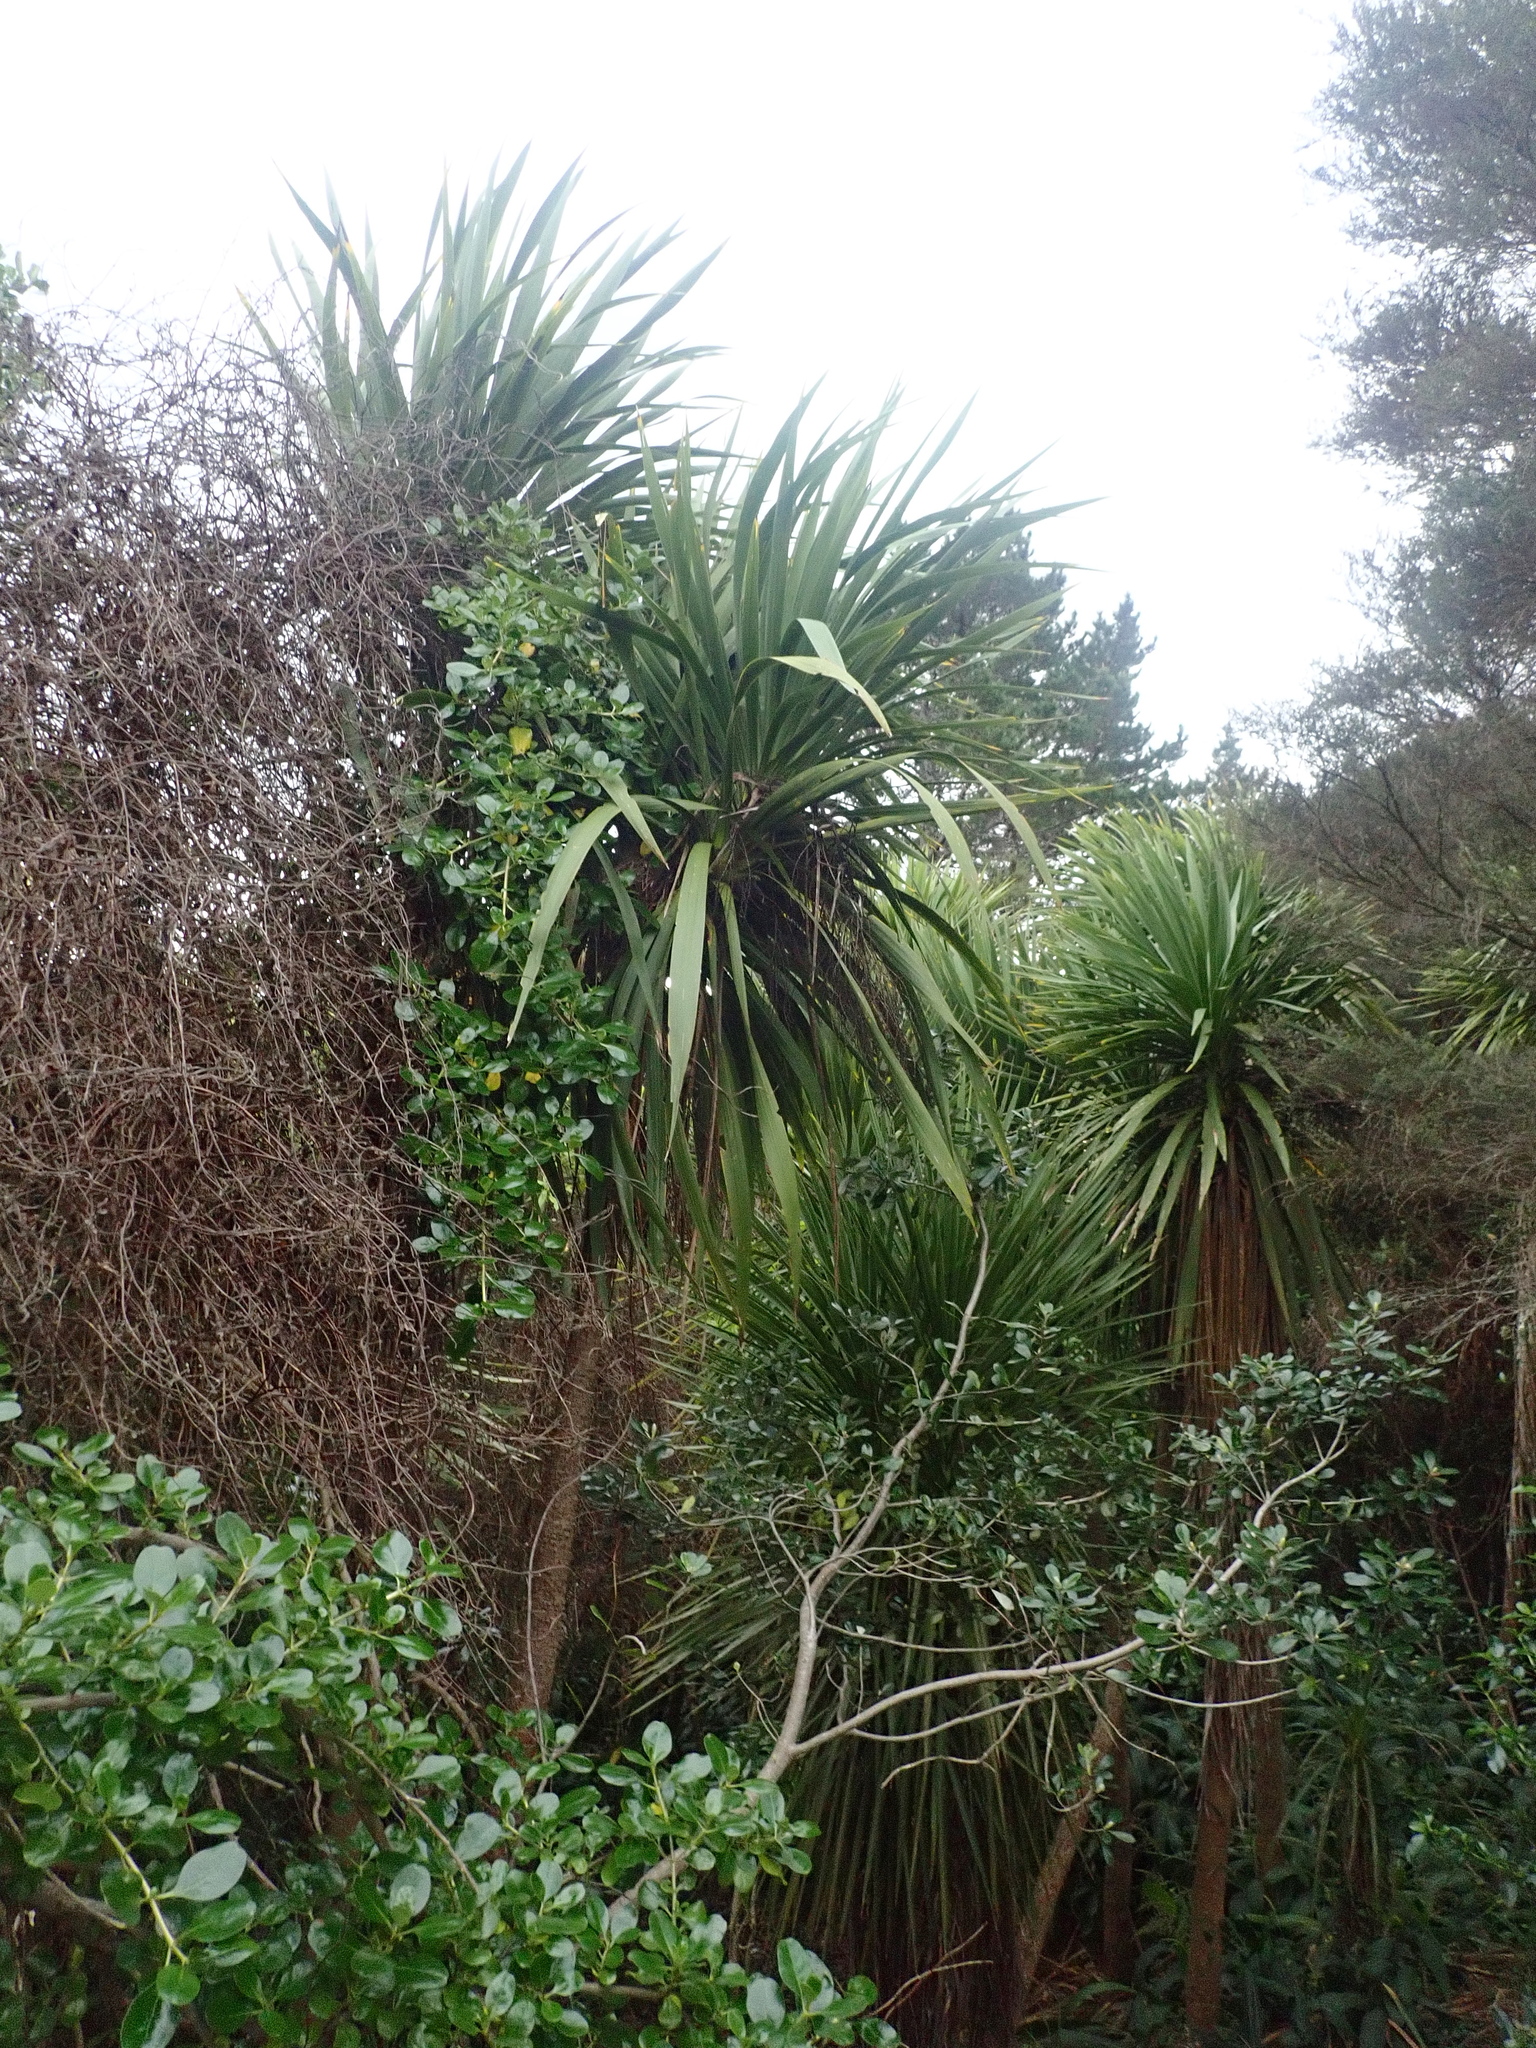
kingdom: Plantae
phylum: Tracheophyta
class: Liliopsida
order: Asparagales
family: Asparagaceae
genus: Cordyline
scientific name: Cordyline australis
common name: Cabbage-palm
